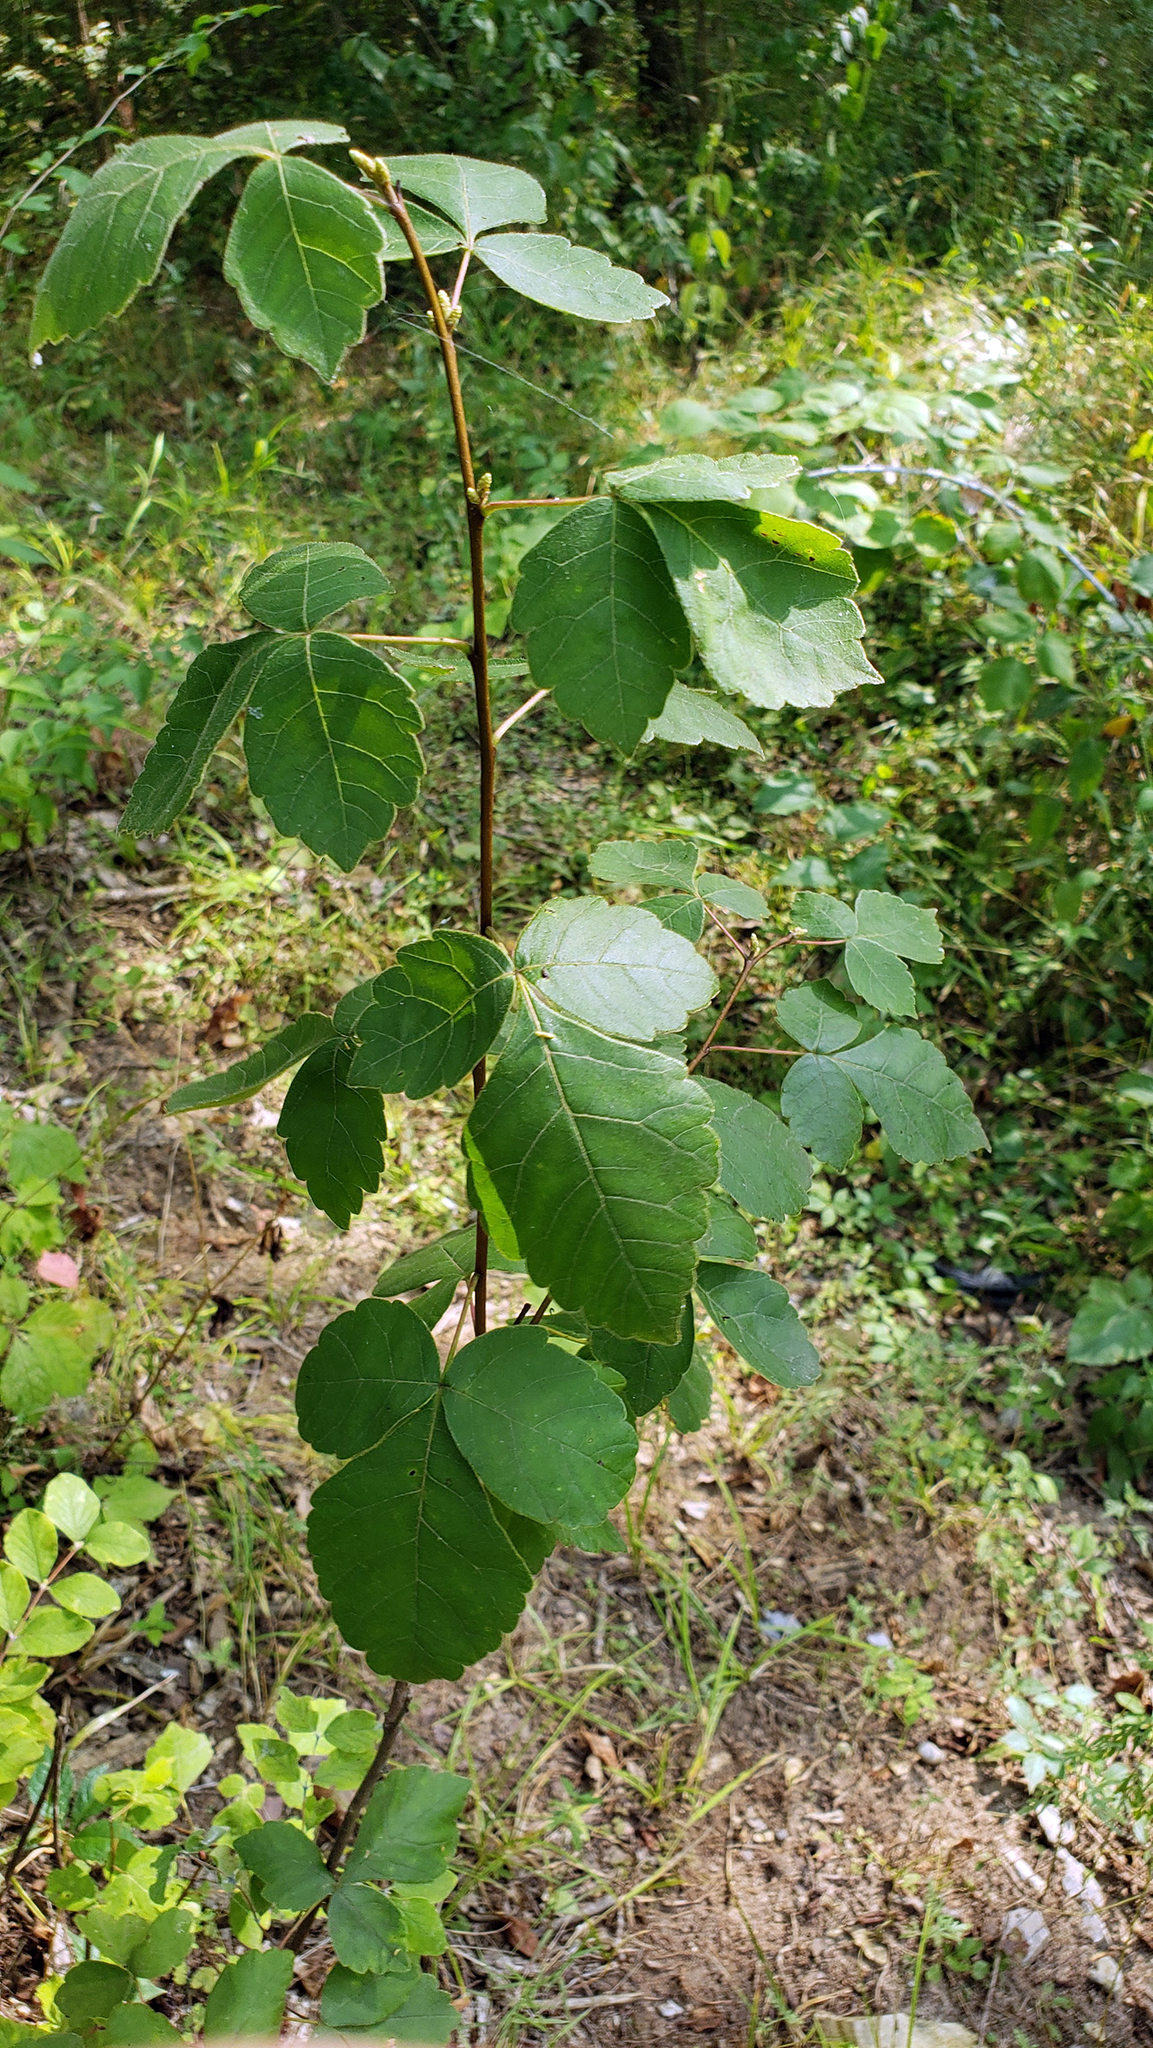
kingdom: Plantae
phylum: Tracheophyta
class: Magnoliopsida
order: Sapindales
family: Anacardiaceae
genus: Rhus
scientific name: Rhus aromatica
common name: Aromatic sumac
